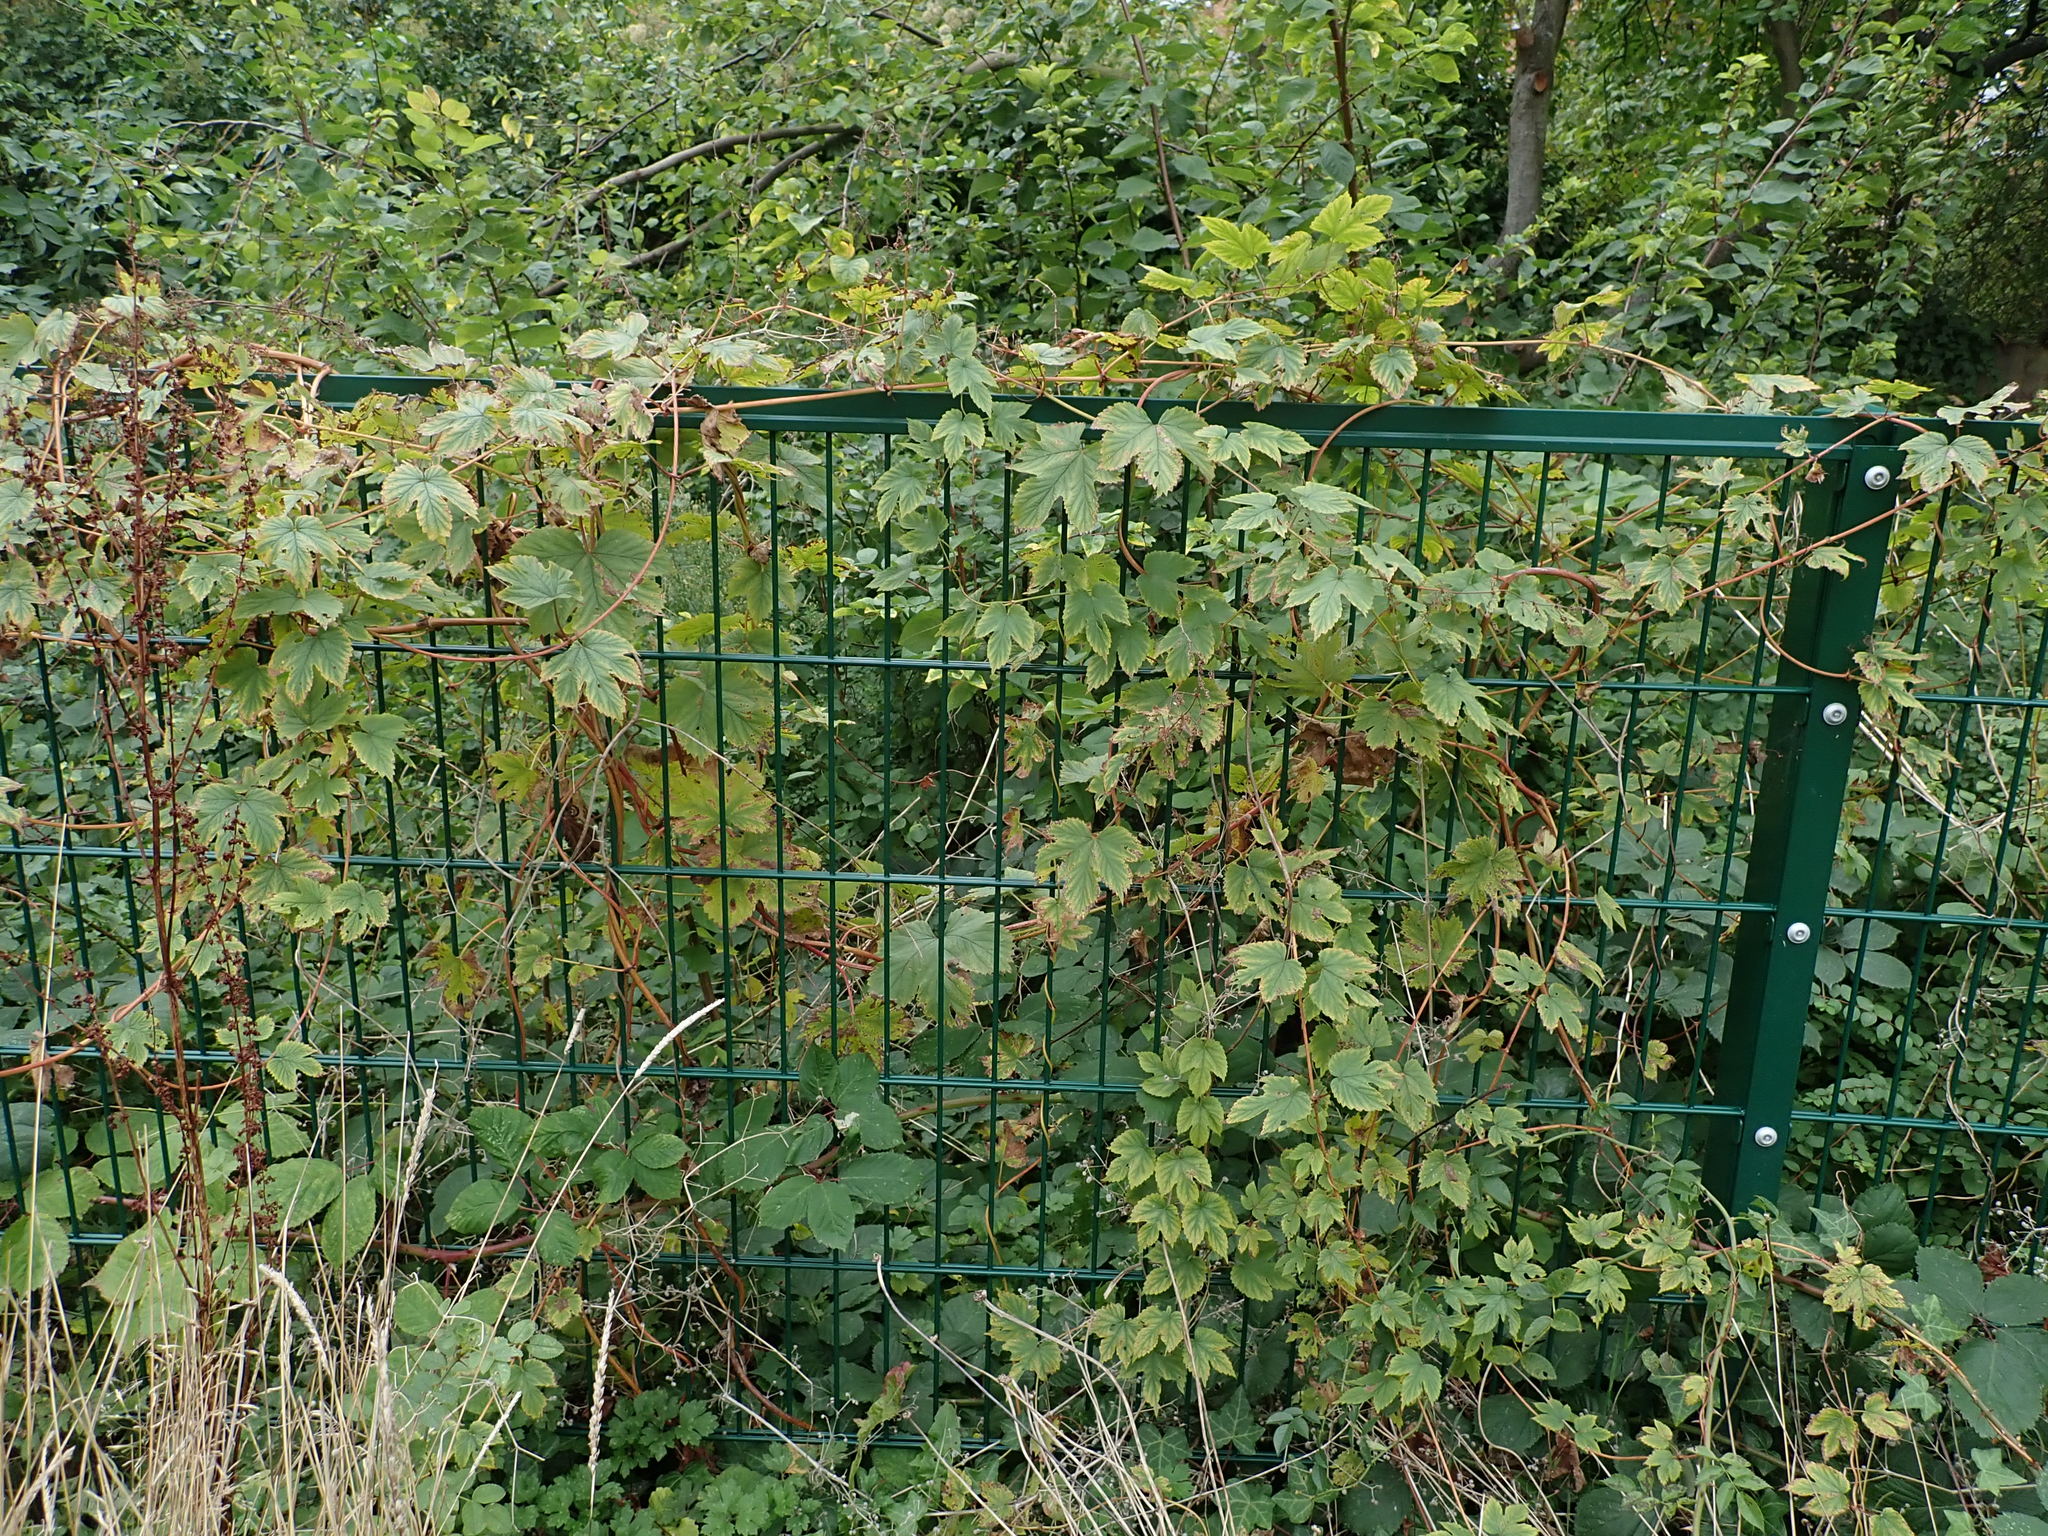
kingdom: Plantae
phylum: Tracheophyta
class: Magnoliopsida
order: Rosales
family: Cannabaceae
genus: Humulus
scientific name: Humulus lupulus
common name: Hop
